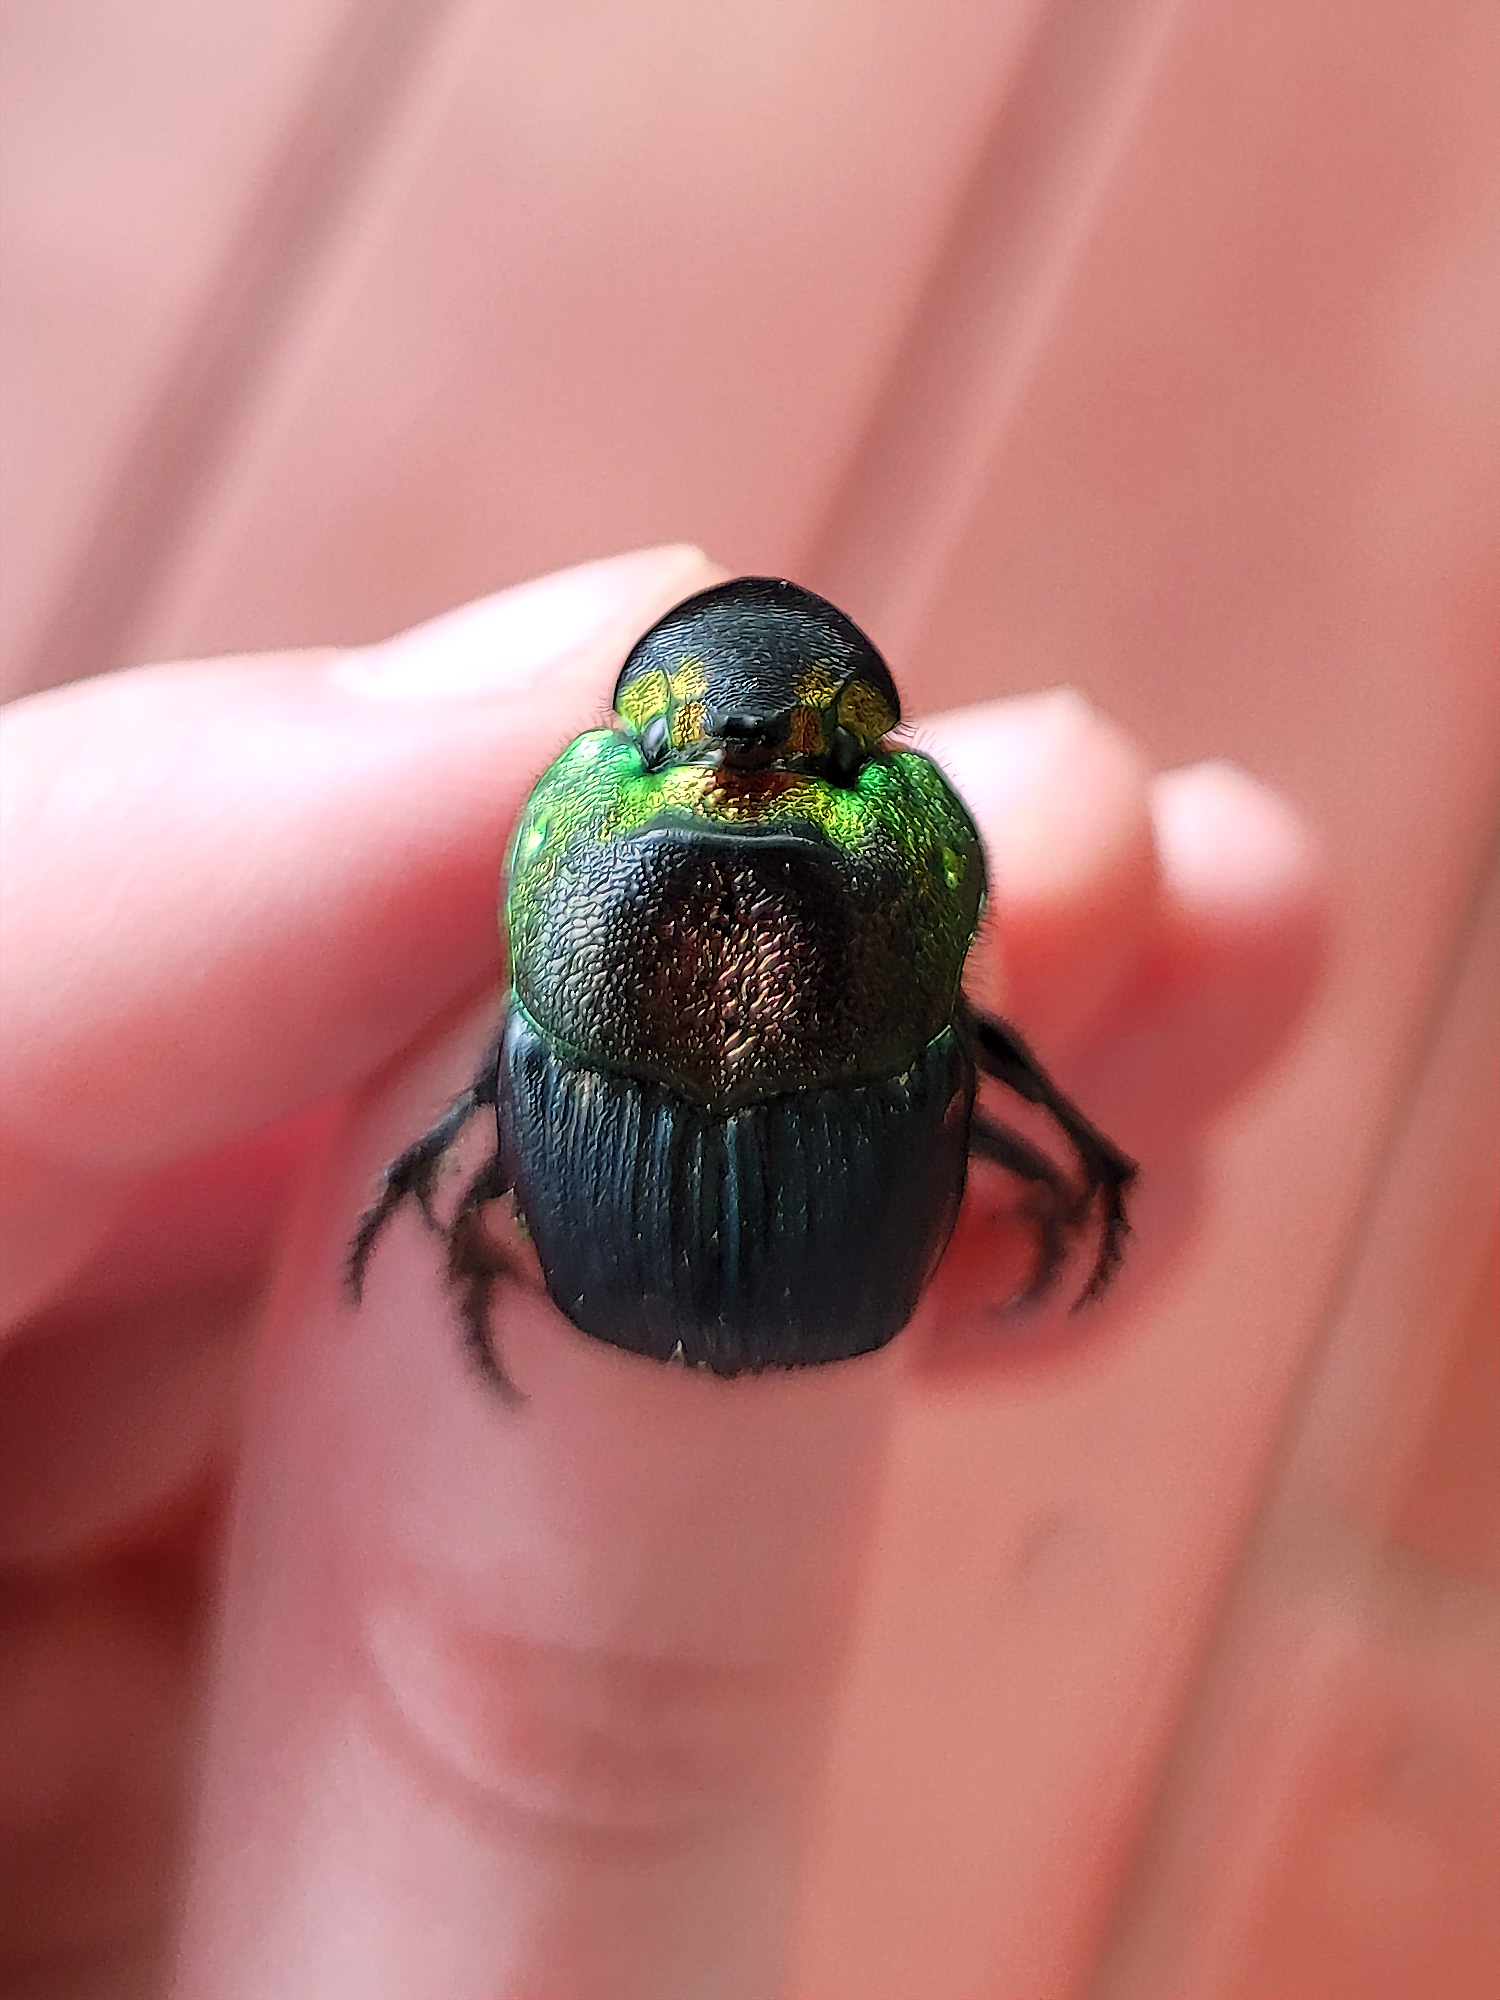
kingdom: Animalia
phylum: Arthropoda
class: Insecta
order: Coleoptera
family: Scarabaeidae
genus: Phanaeus
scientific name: Phanaeus vindex
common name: Rainbow scarab
